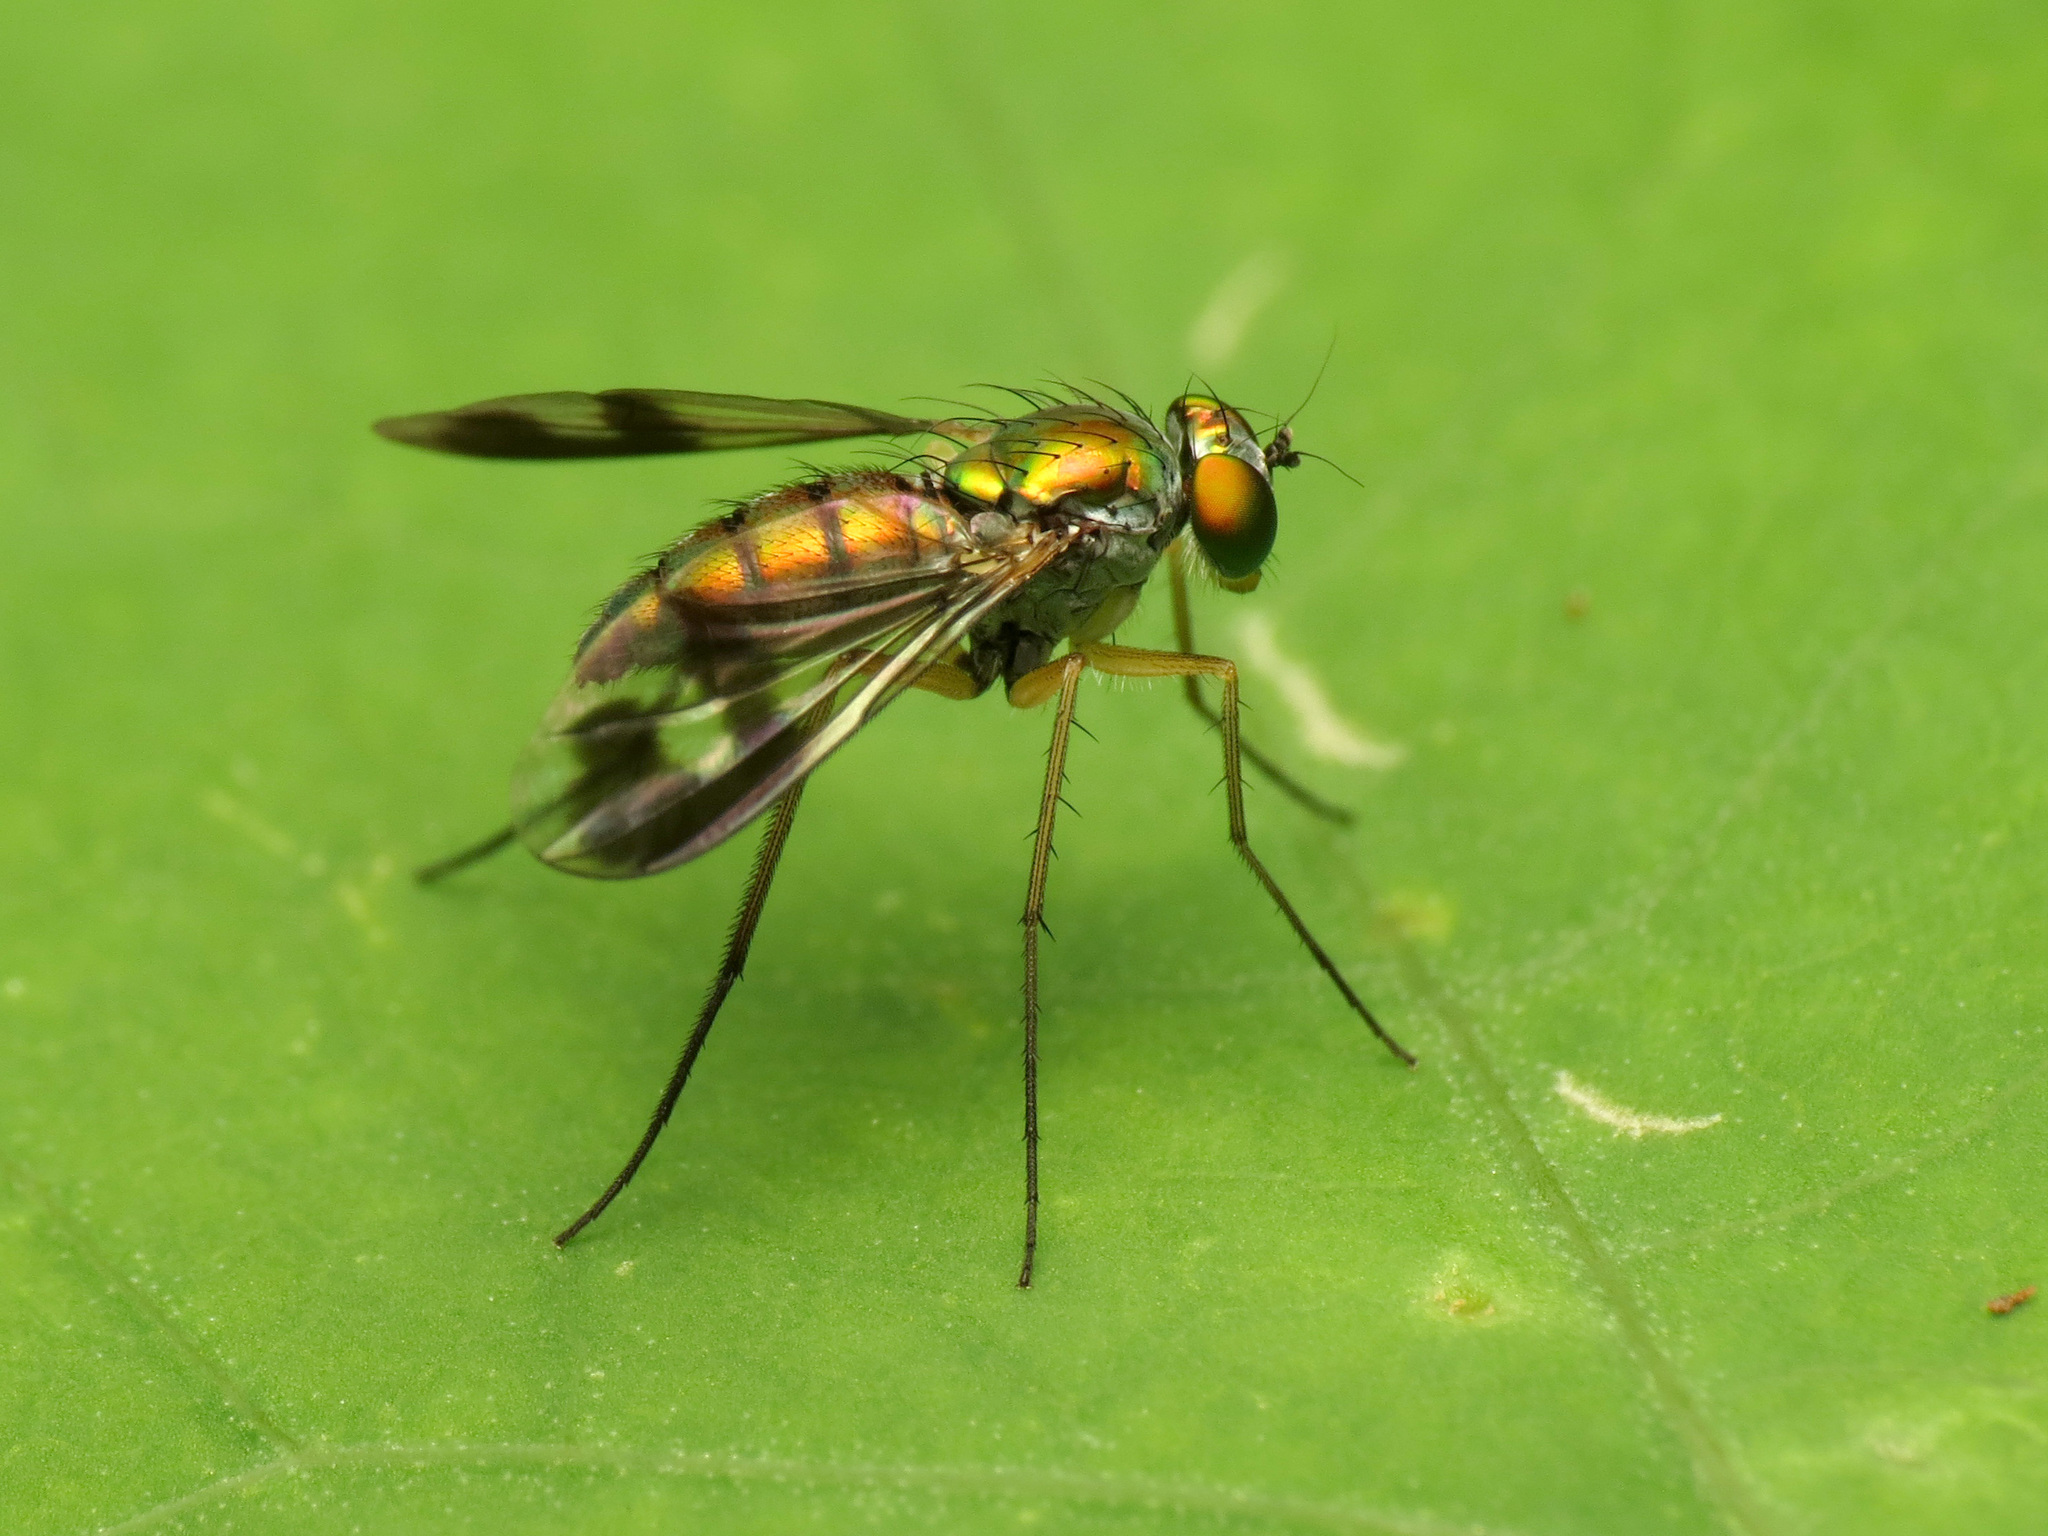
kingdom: Animalia
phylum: Arthropoda
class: Insecta
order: Diptera
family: Dolichopodidae
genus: Condylostylus
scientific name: Condylostylus
